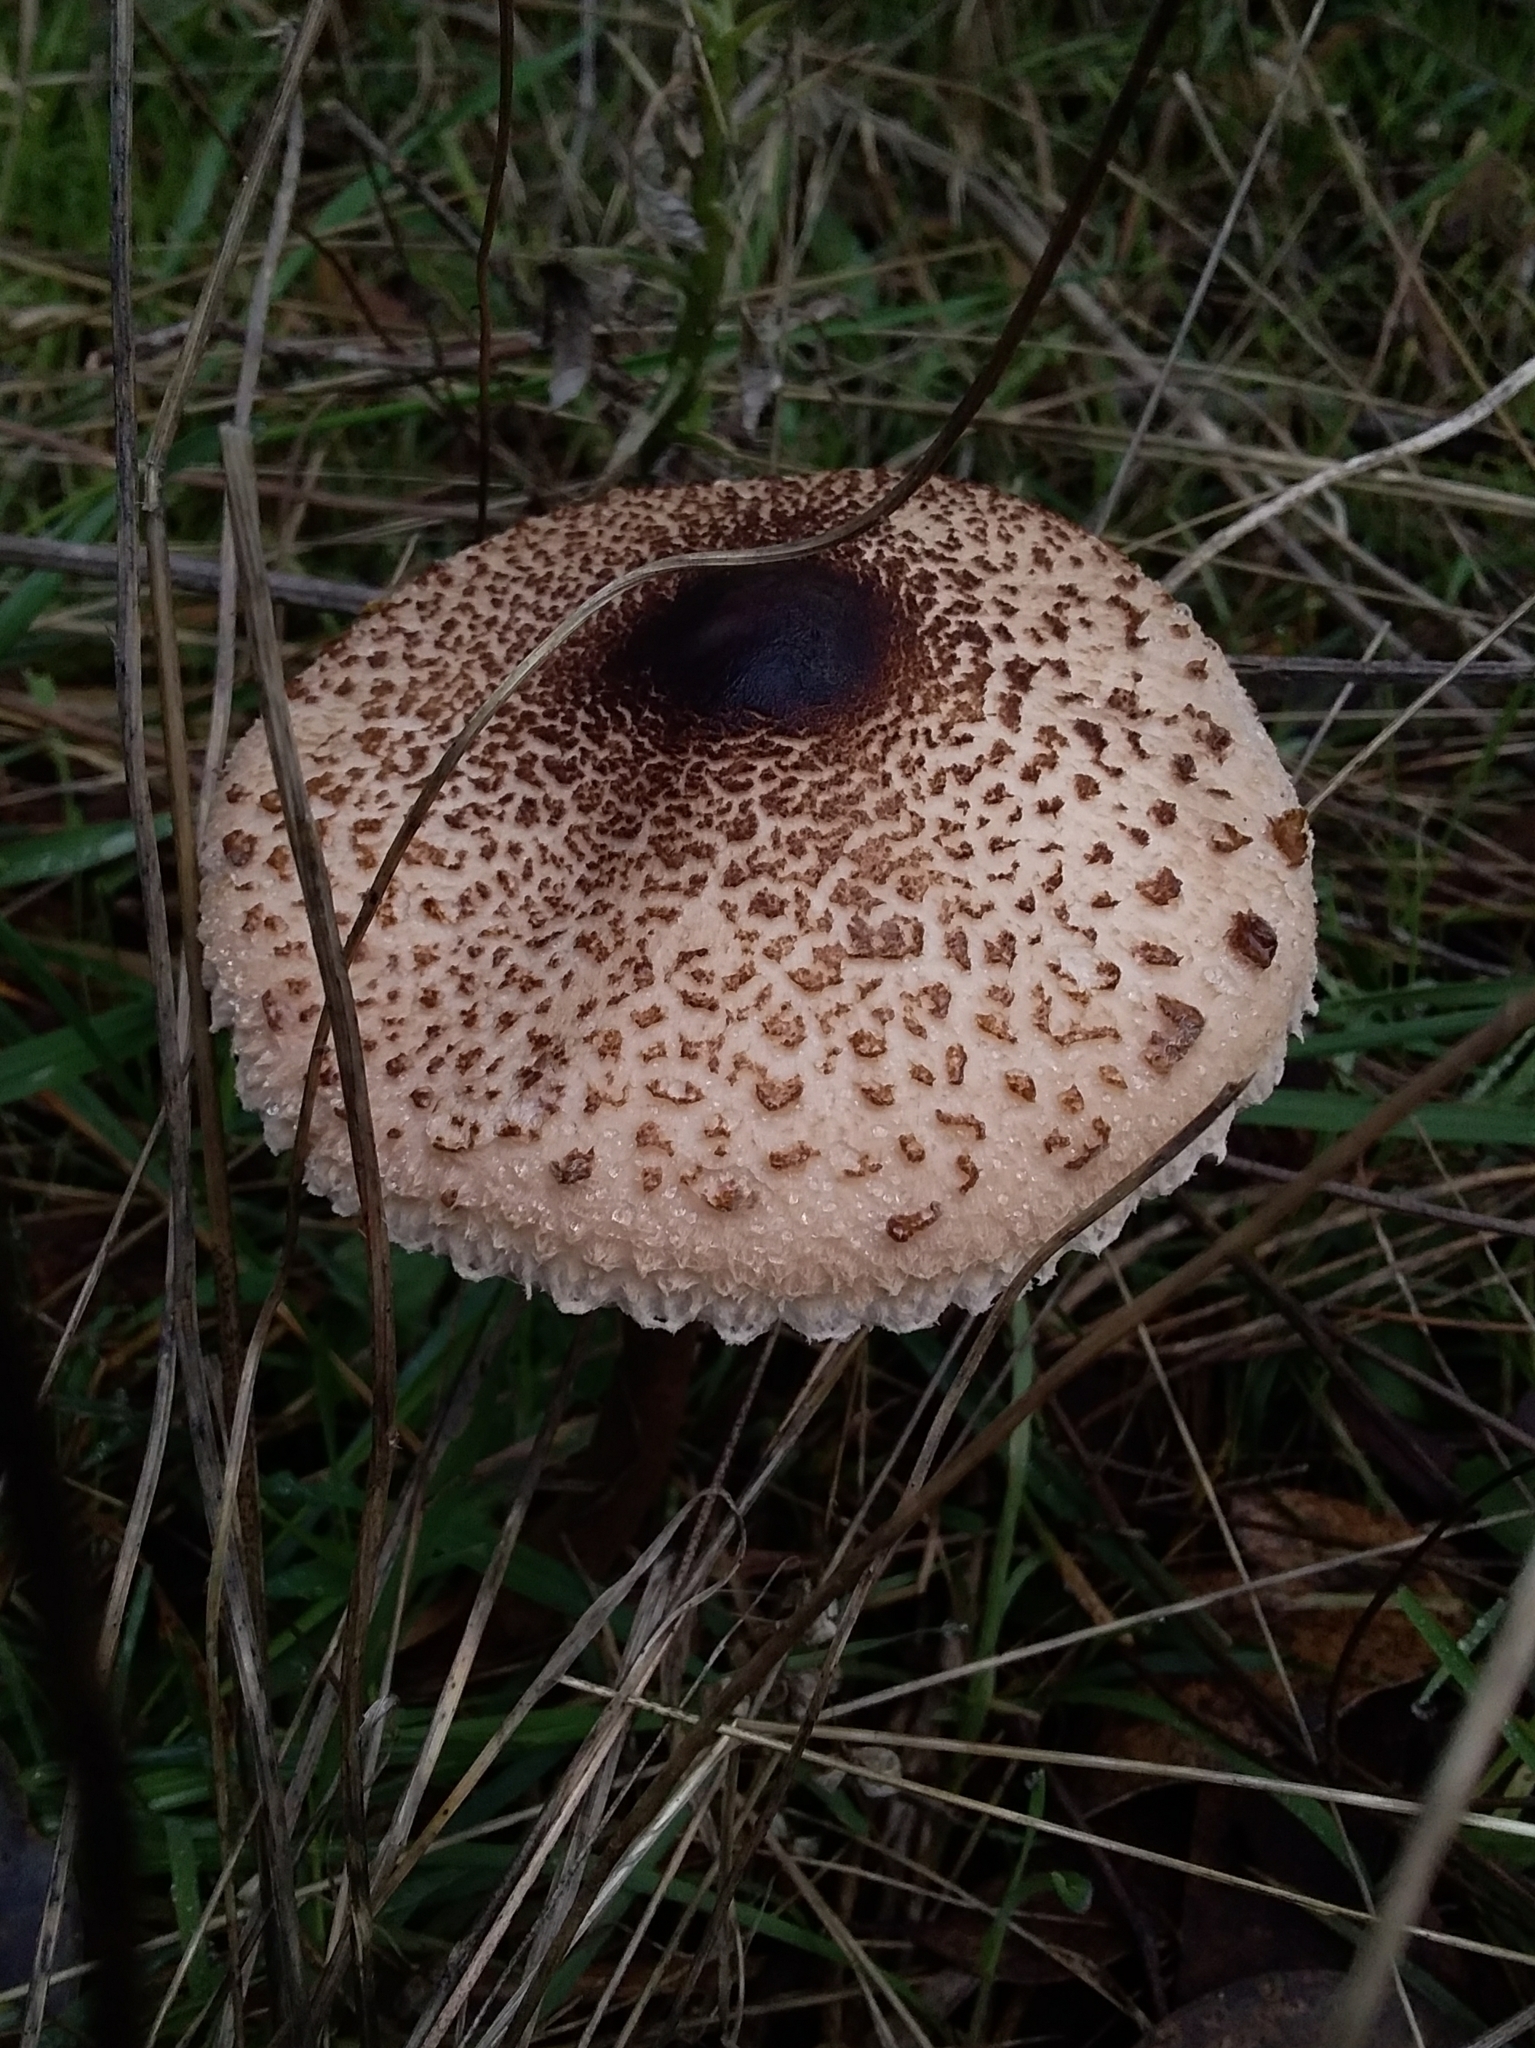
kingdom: Fungi
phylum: Basidiomycota
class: Agaricomycetes
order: Agaricales
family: Agaricaceae
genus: Macrolepiota
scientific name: Macrolepiota clelandii
